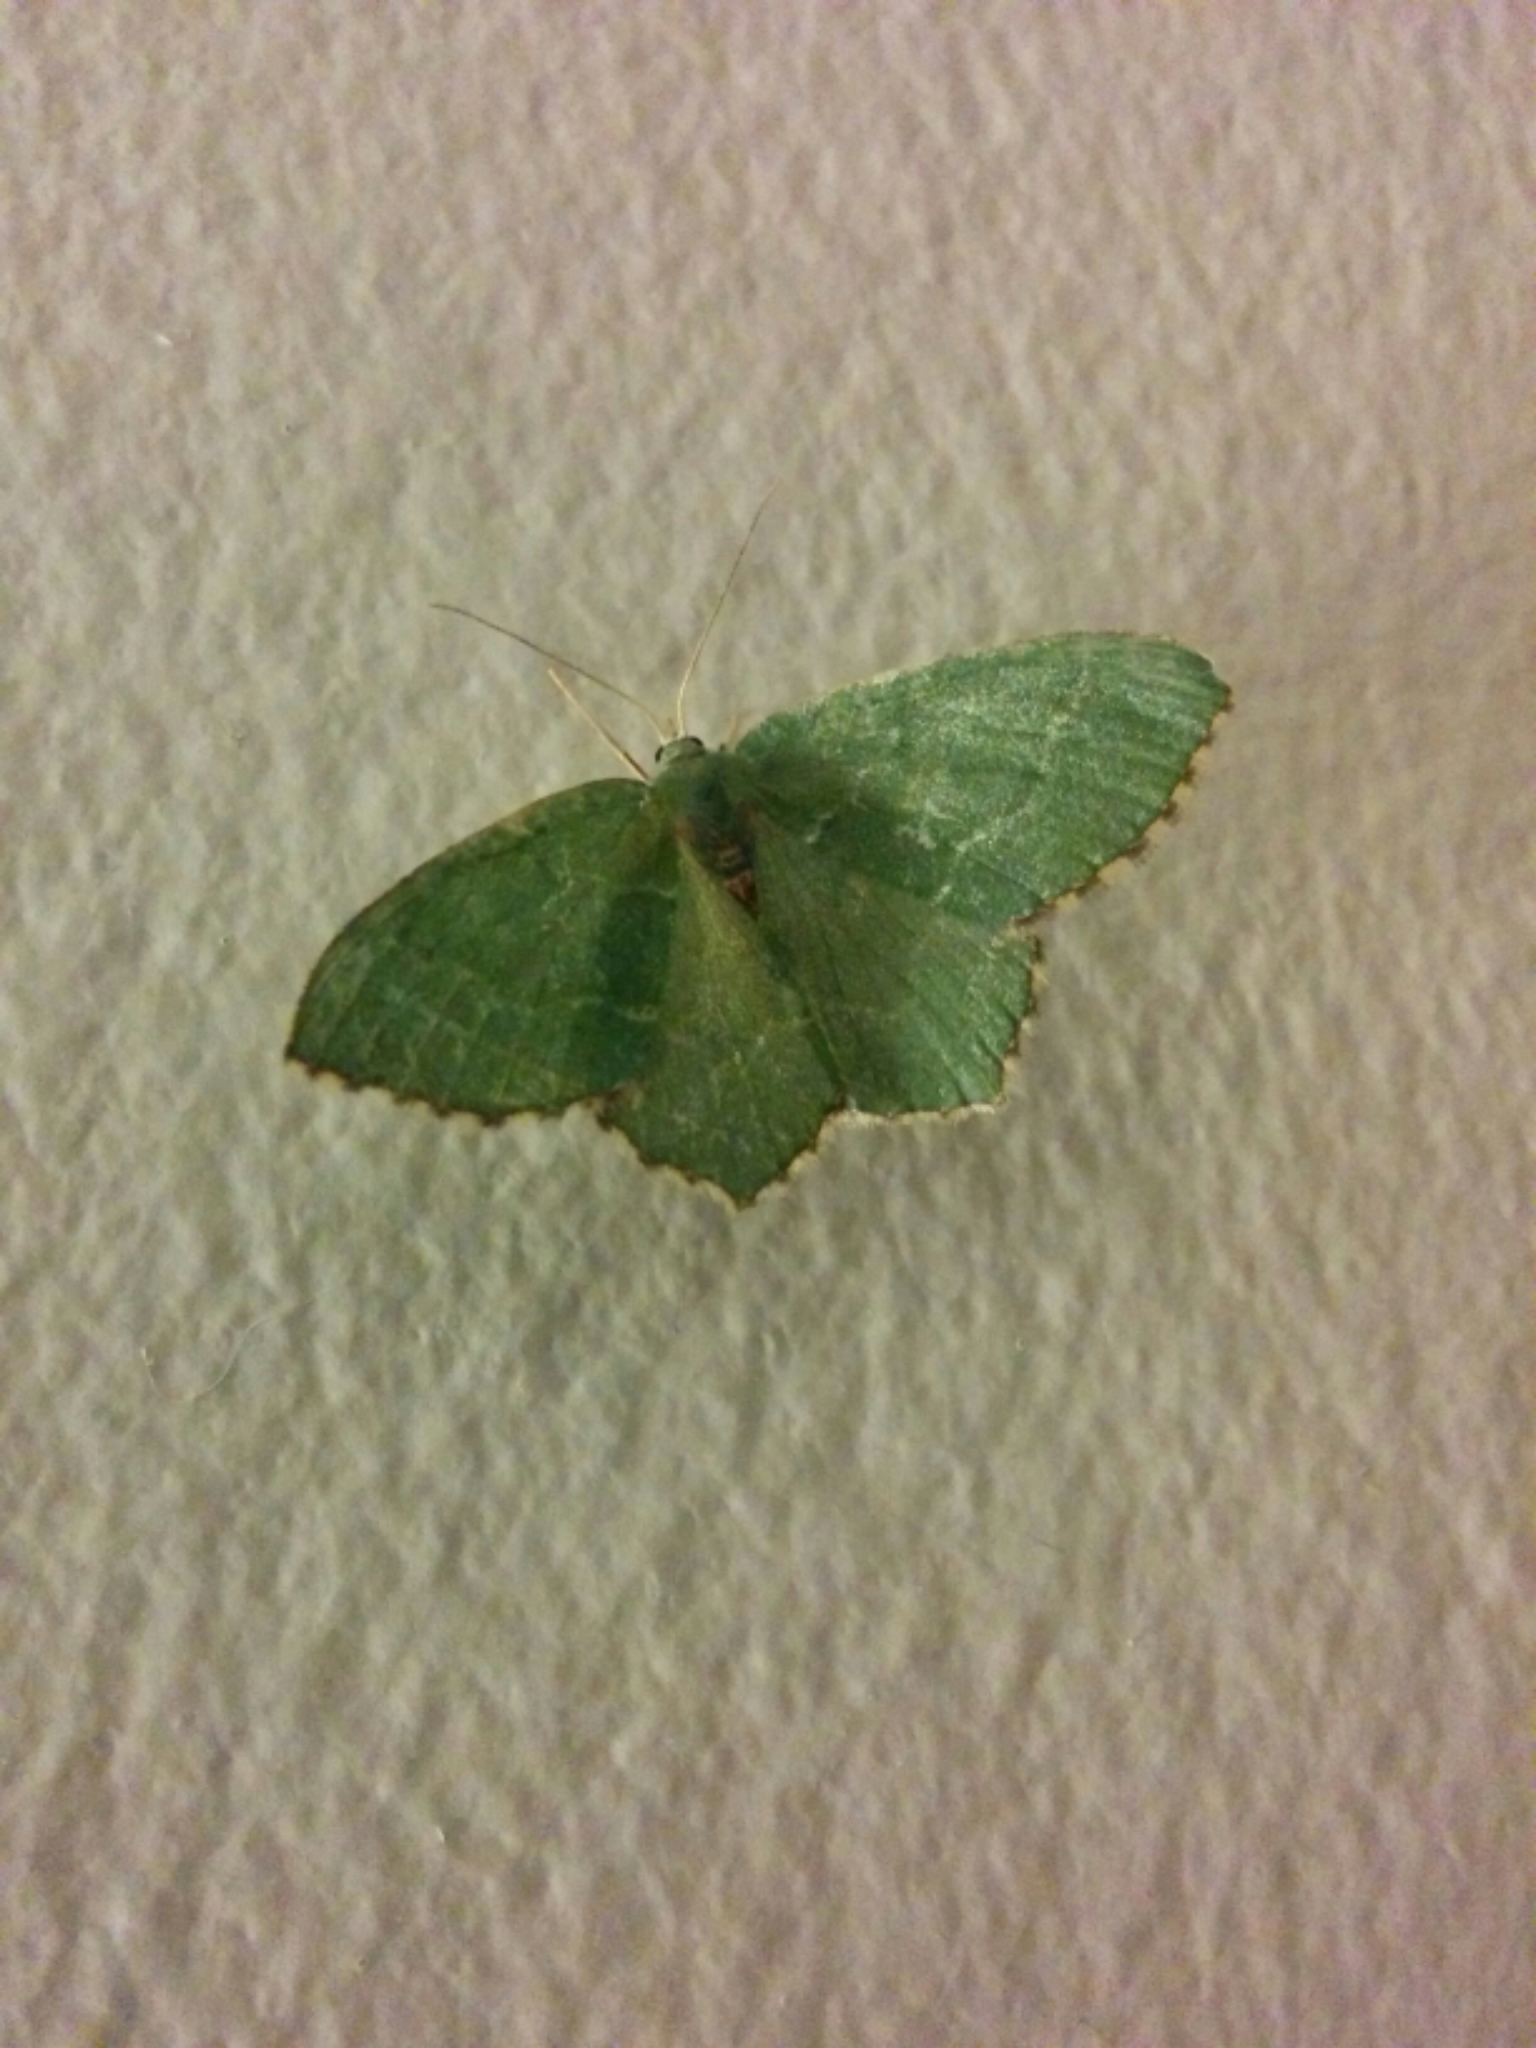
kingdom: Animalia
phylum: Arthropoda
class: Insecta
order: Lepidoptera
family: Geometridae
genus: Hemithea
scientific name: Hemithea aestivaria
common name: Common emerald
